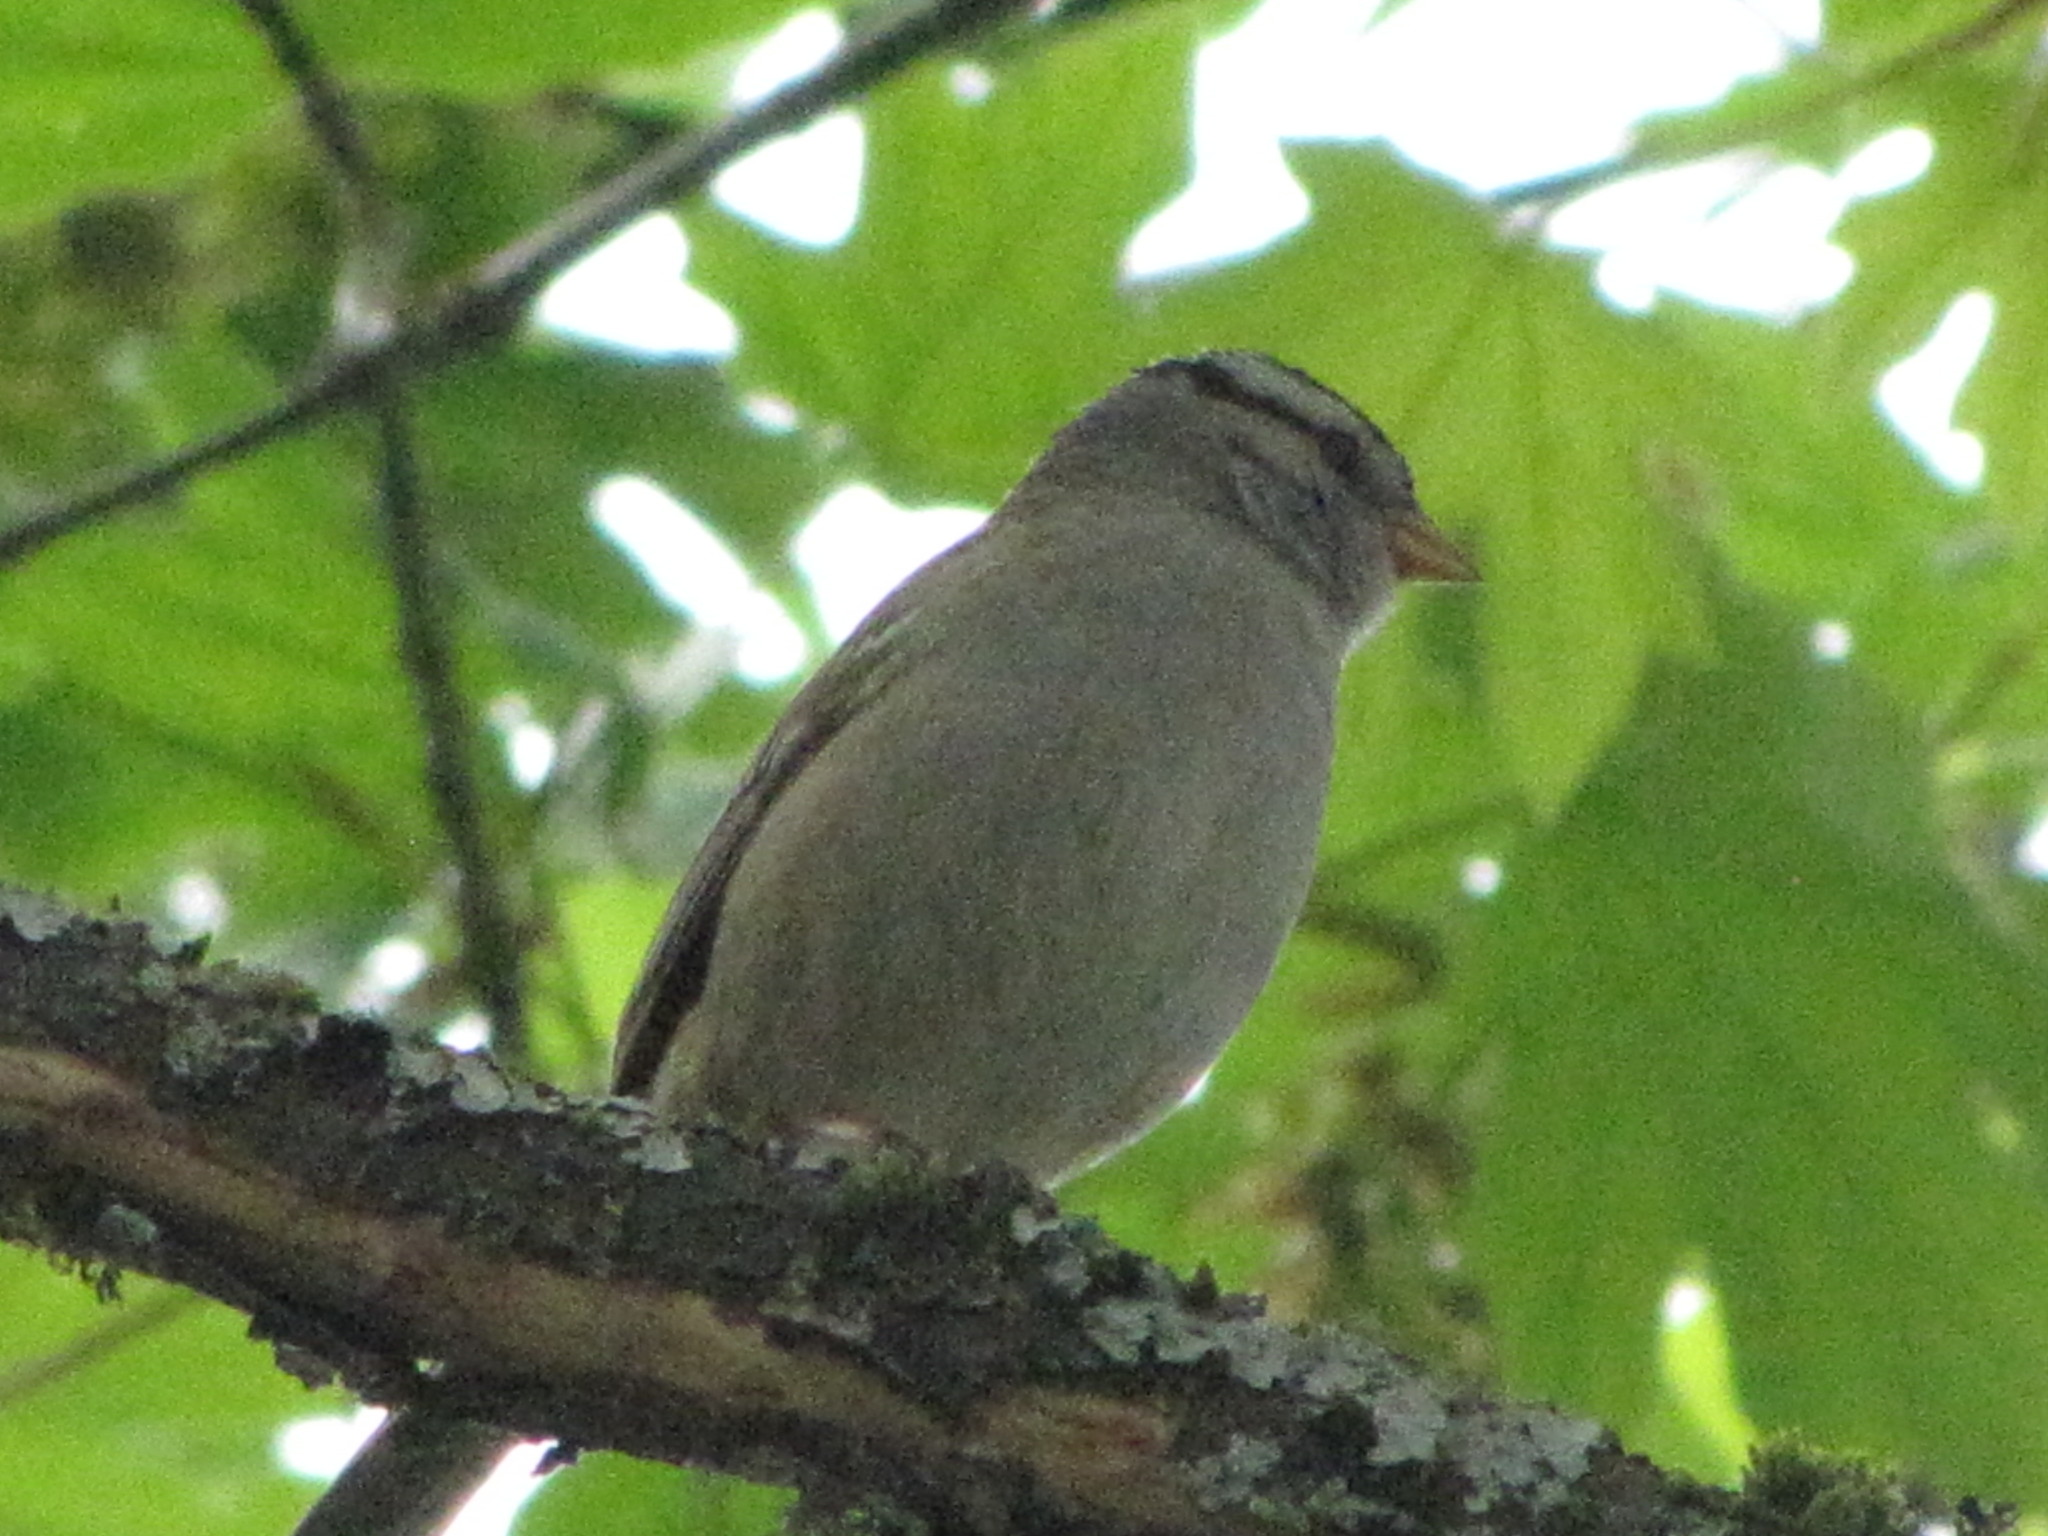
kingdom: Animalia
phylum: Chordata
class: Aves
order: Passeriformes
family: Passerellidae
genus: Zonotrichia
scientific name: Zonotrichia leucophrys
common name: White-crowned sparrow
